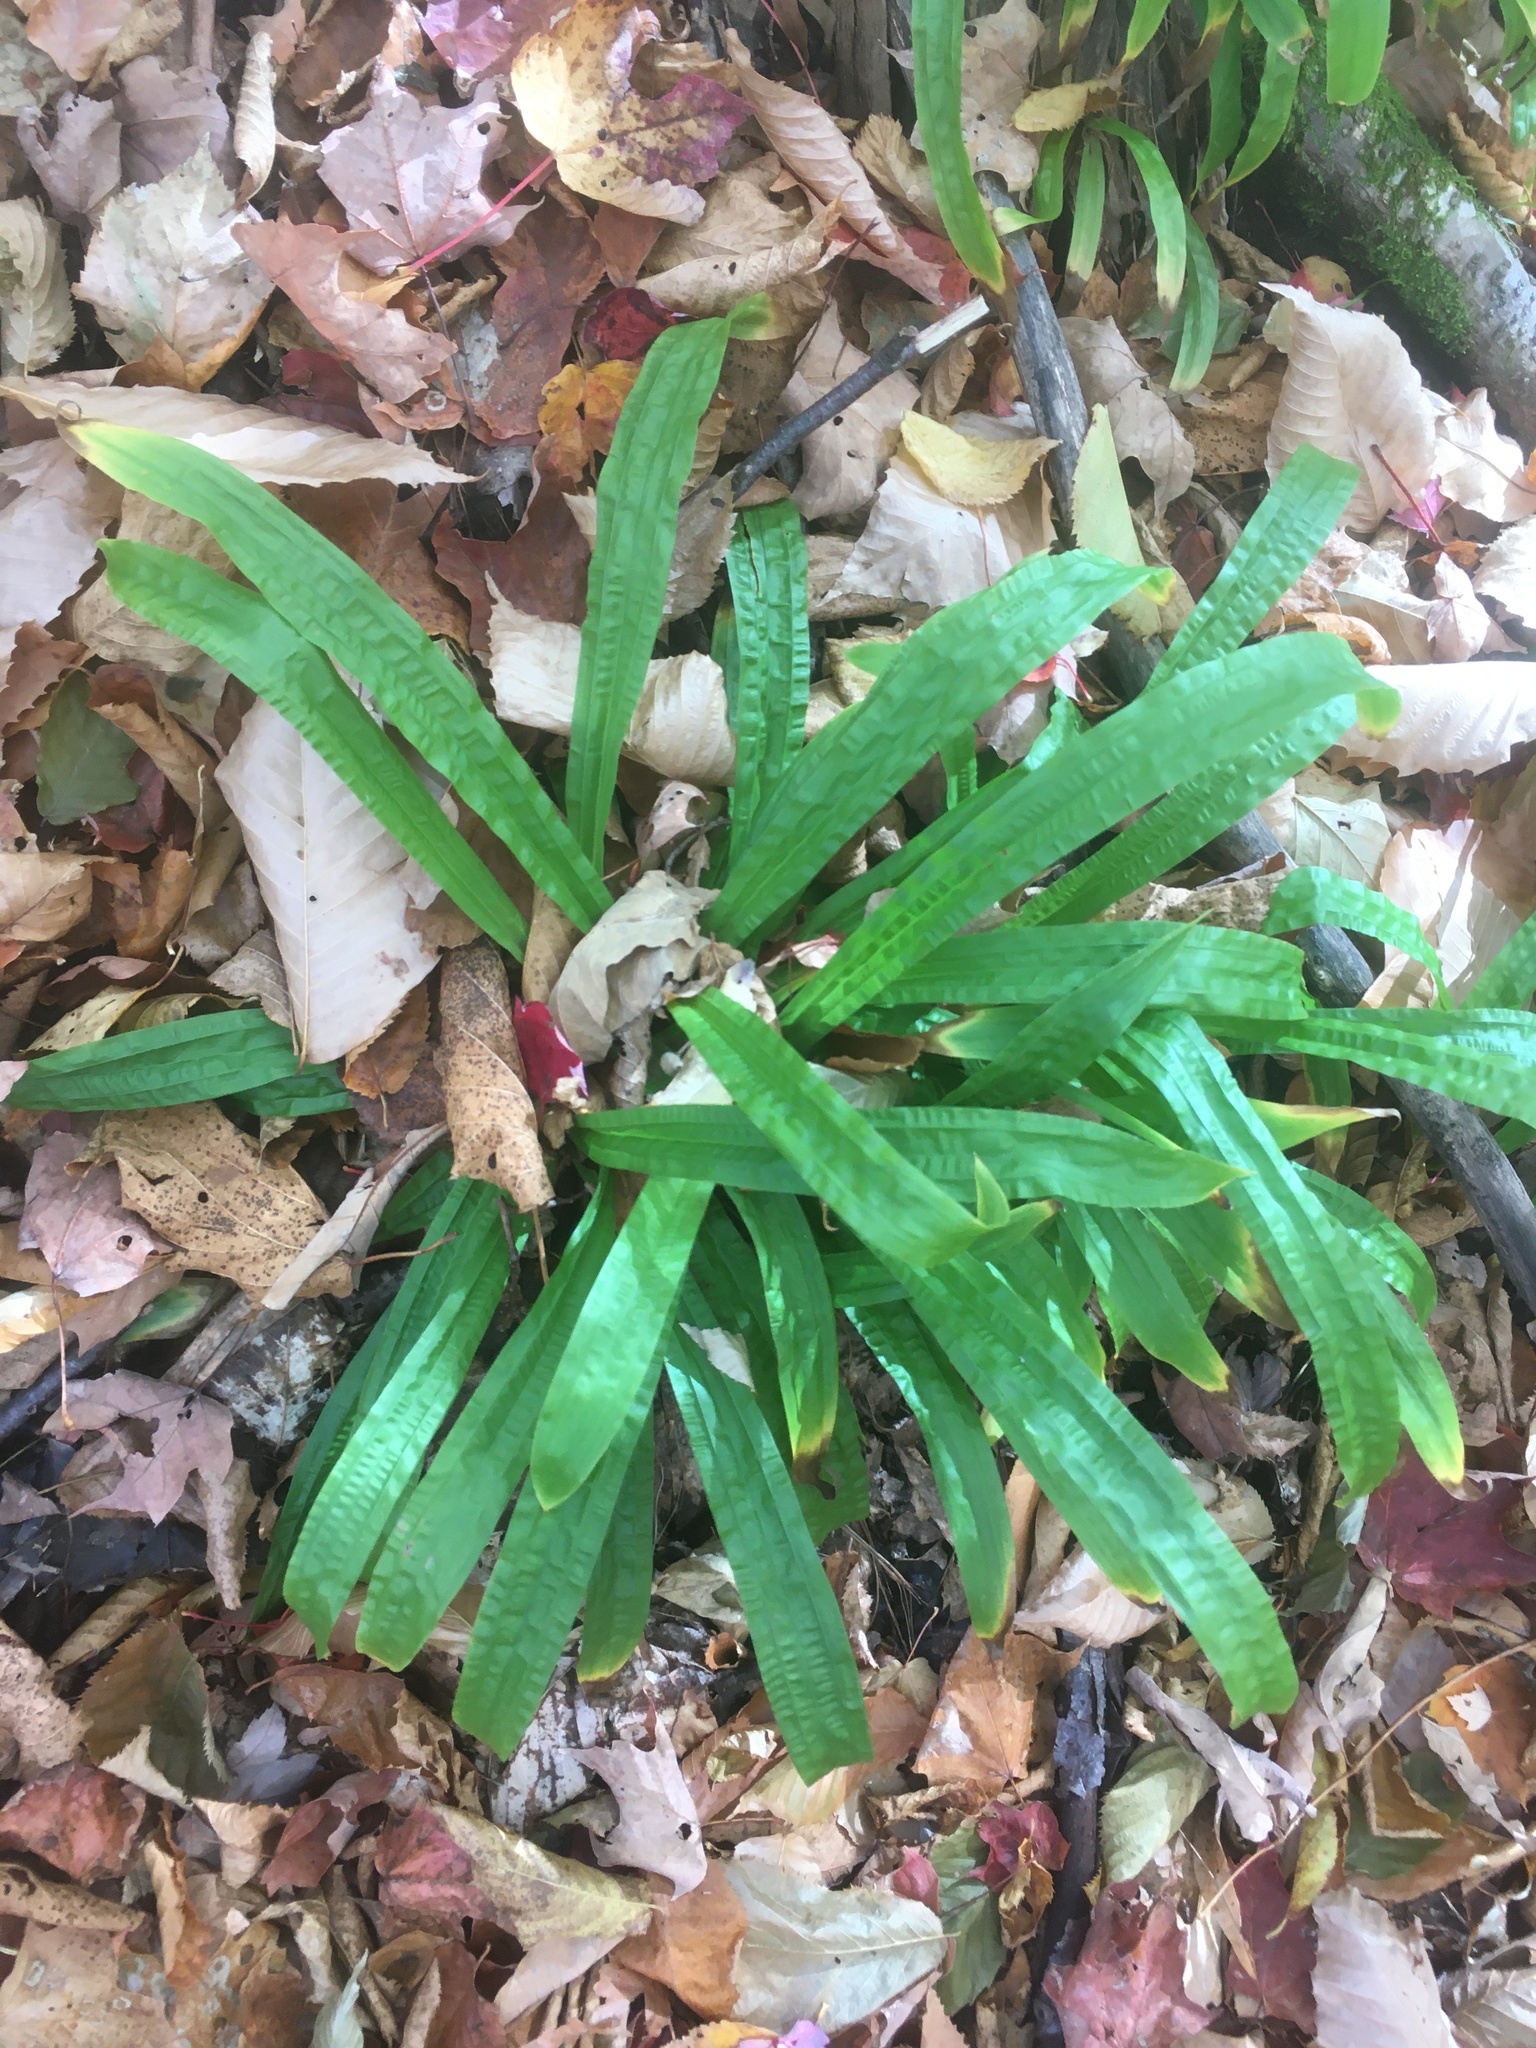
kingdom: Plantae
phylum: Tracheophyta
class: Liliopsida
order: Poales
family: Cyperaceae
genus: Carex
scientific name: Carex plantaginea
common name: Plantain-leaved sedge
